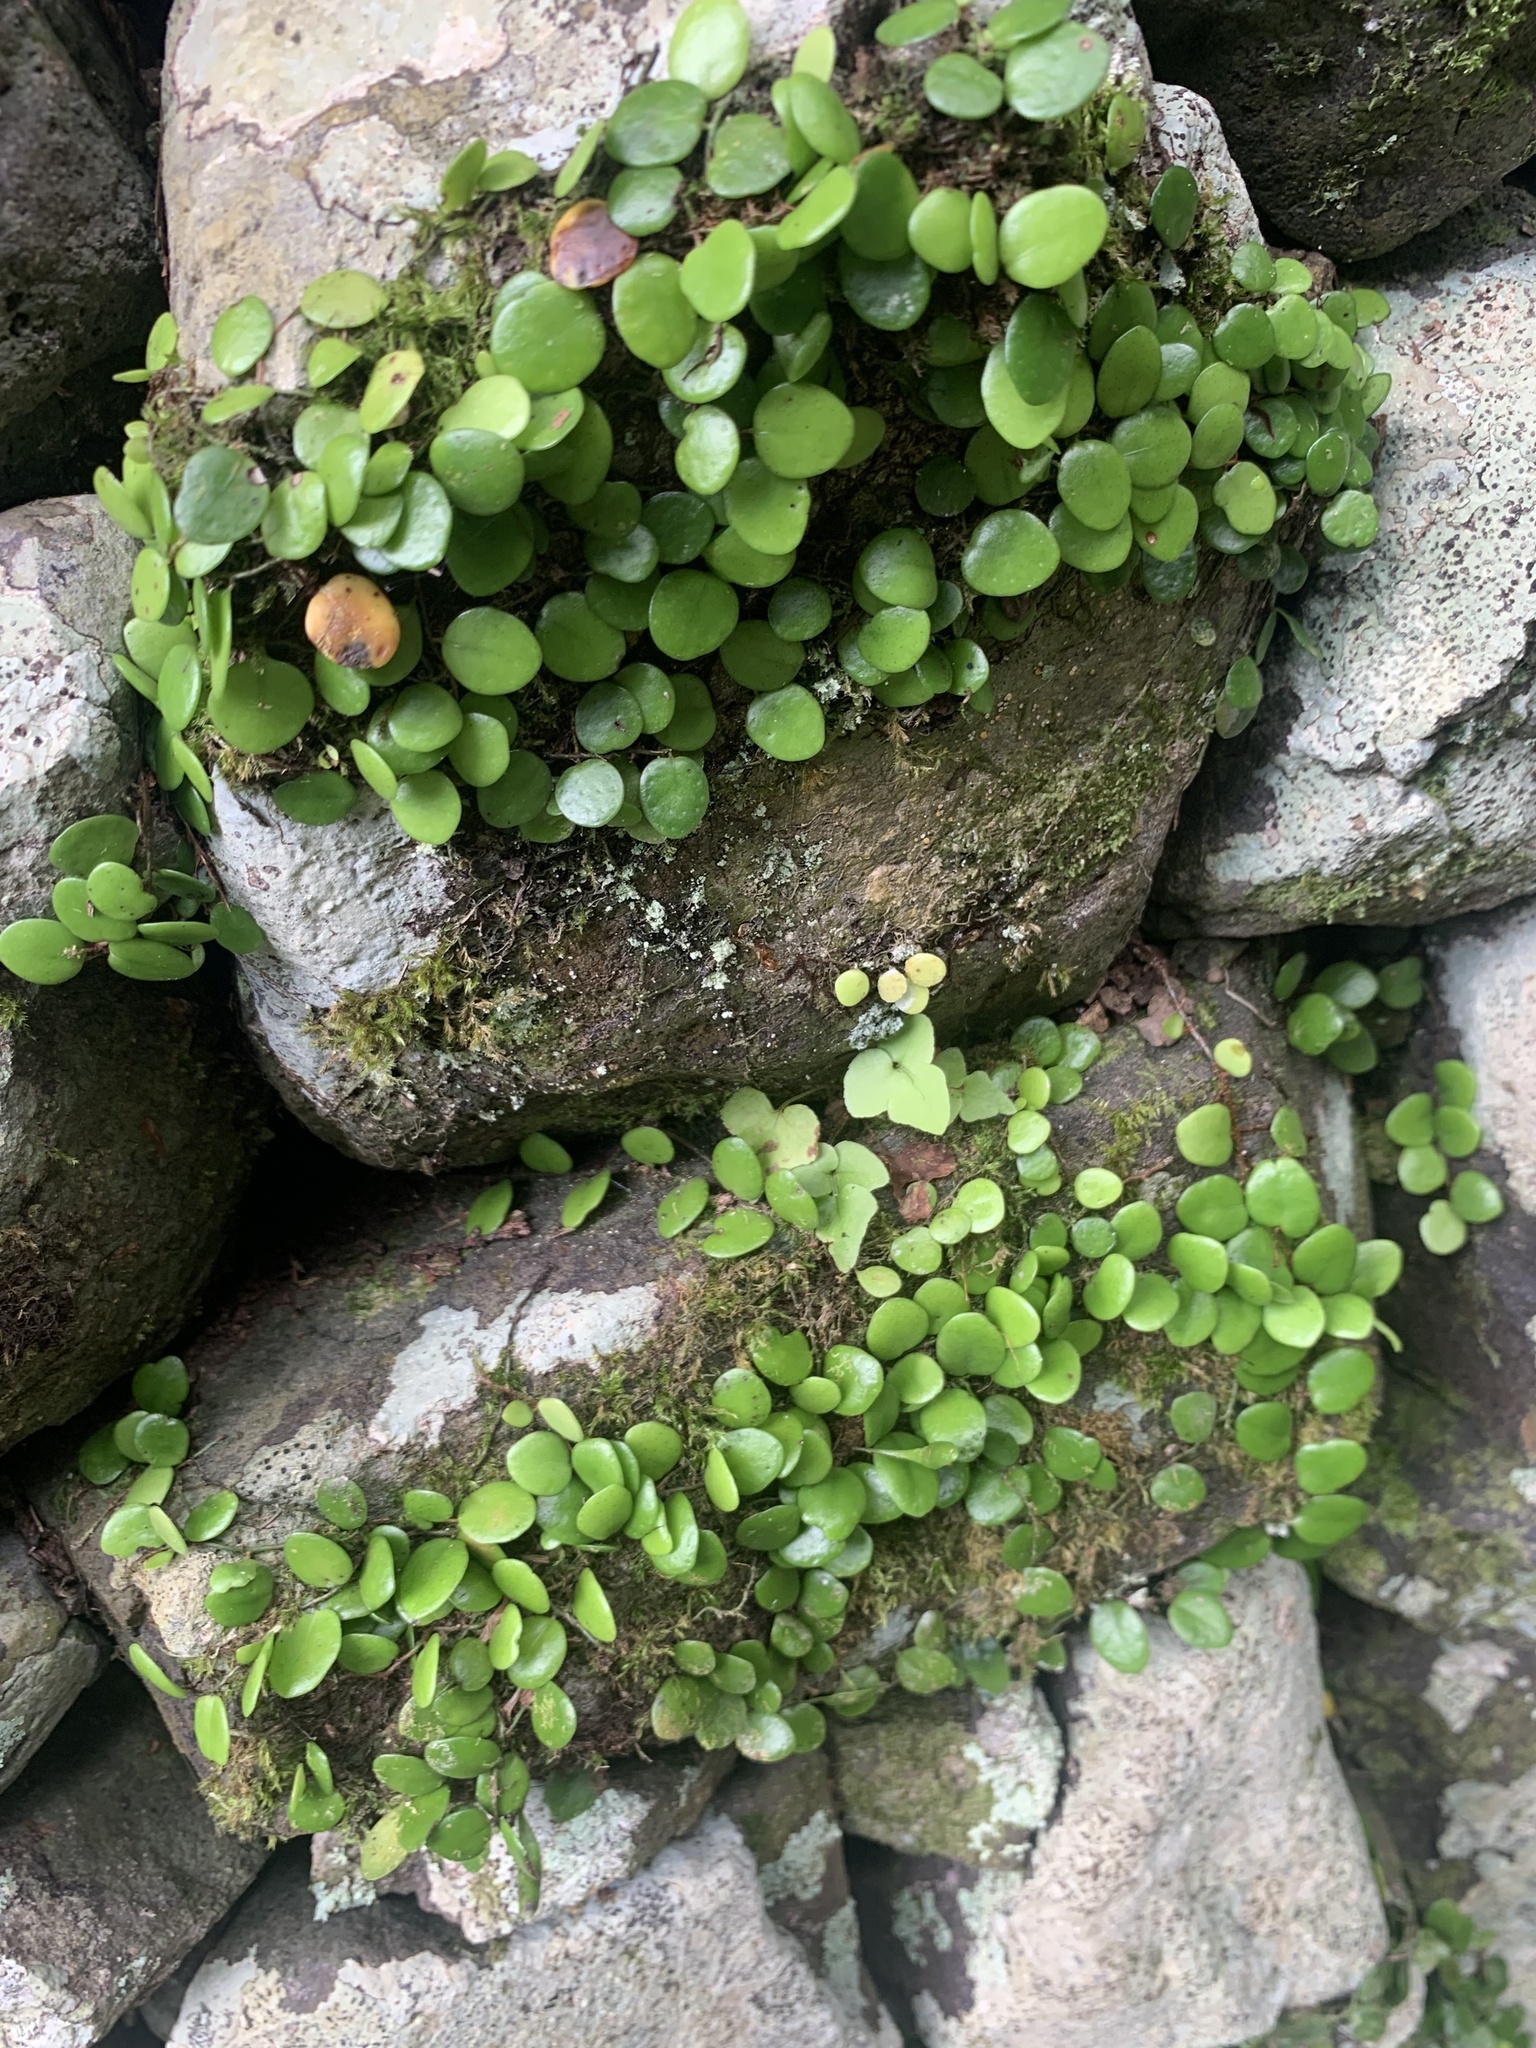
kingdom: Plantae
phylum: Tracheophyta
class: Polypodiopsida
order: Polypodiales
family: Polypodiaceae
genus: Lepisorus
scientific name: Lepisorus microphyllus
